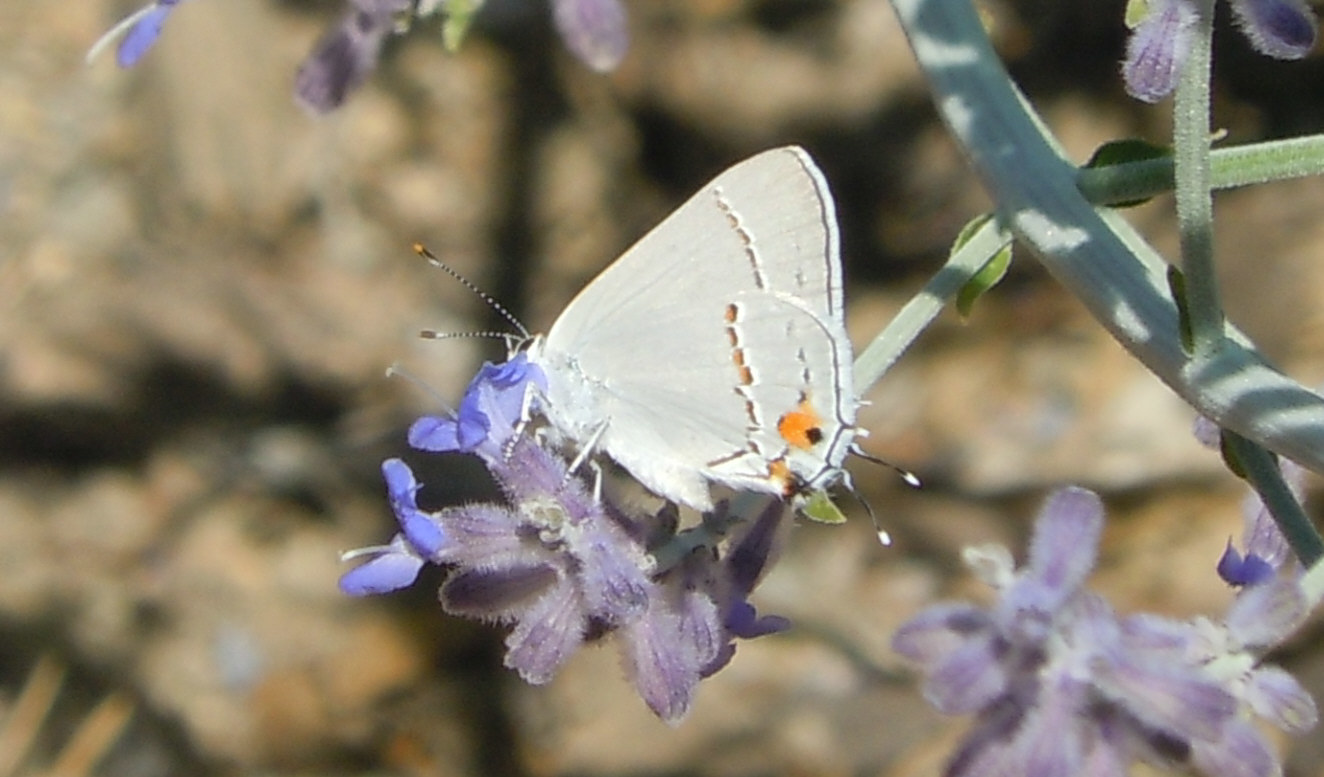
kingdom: Animalia
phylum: Arthropoda
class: Insecta
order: Lepidoptera
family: Lycaenidae
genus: Strymon
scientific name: Strymon melinus
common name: Gray hairstreak
